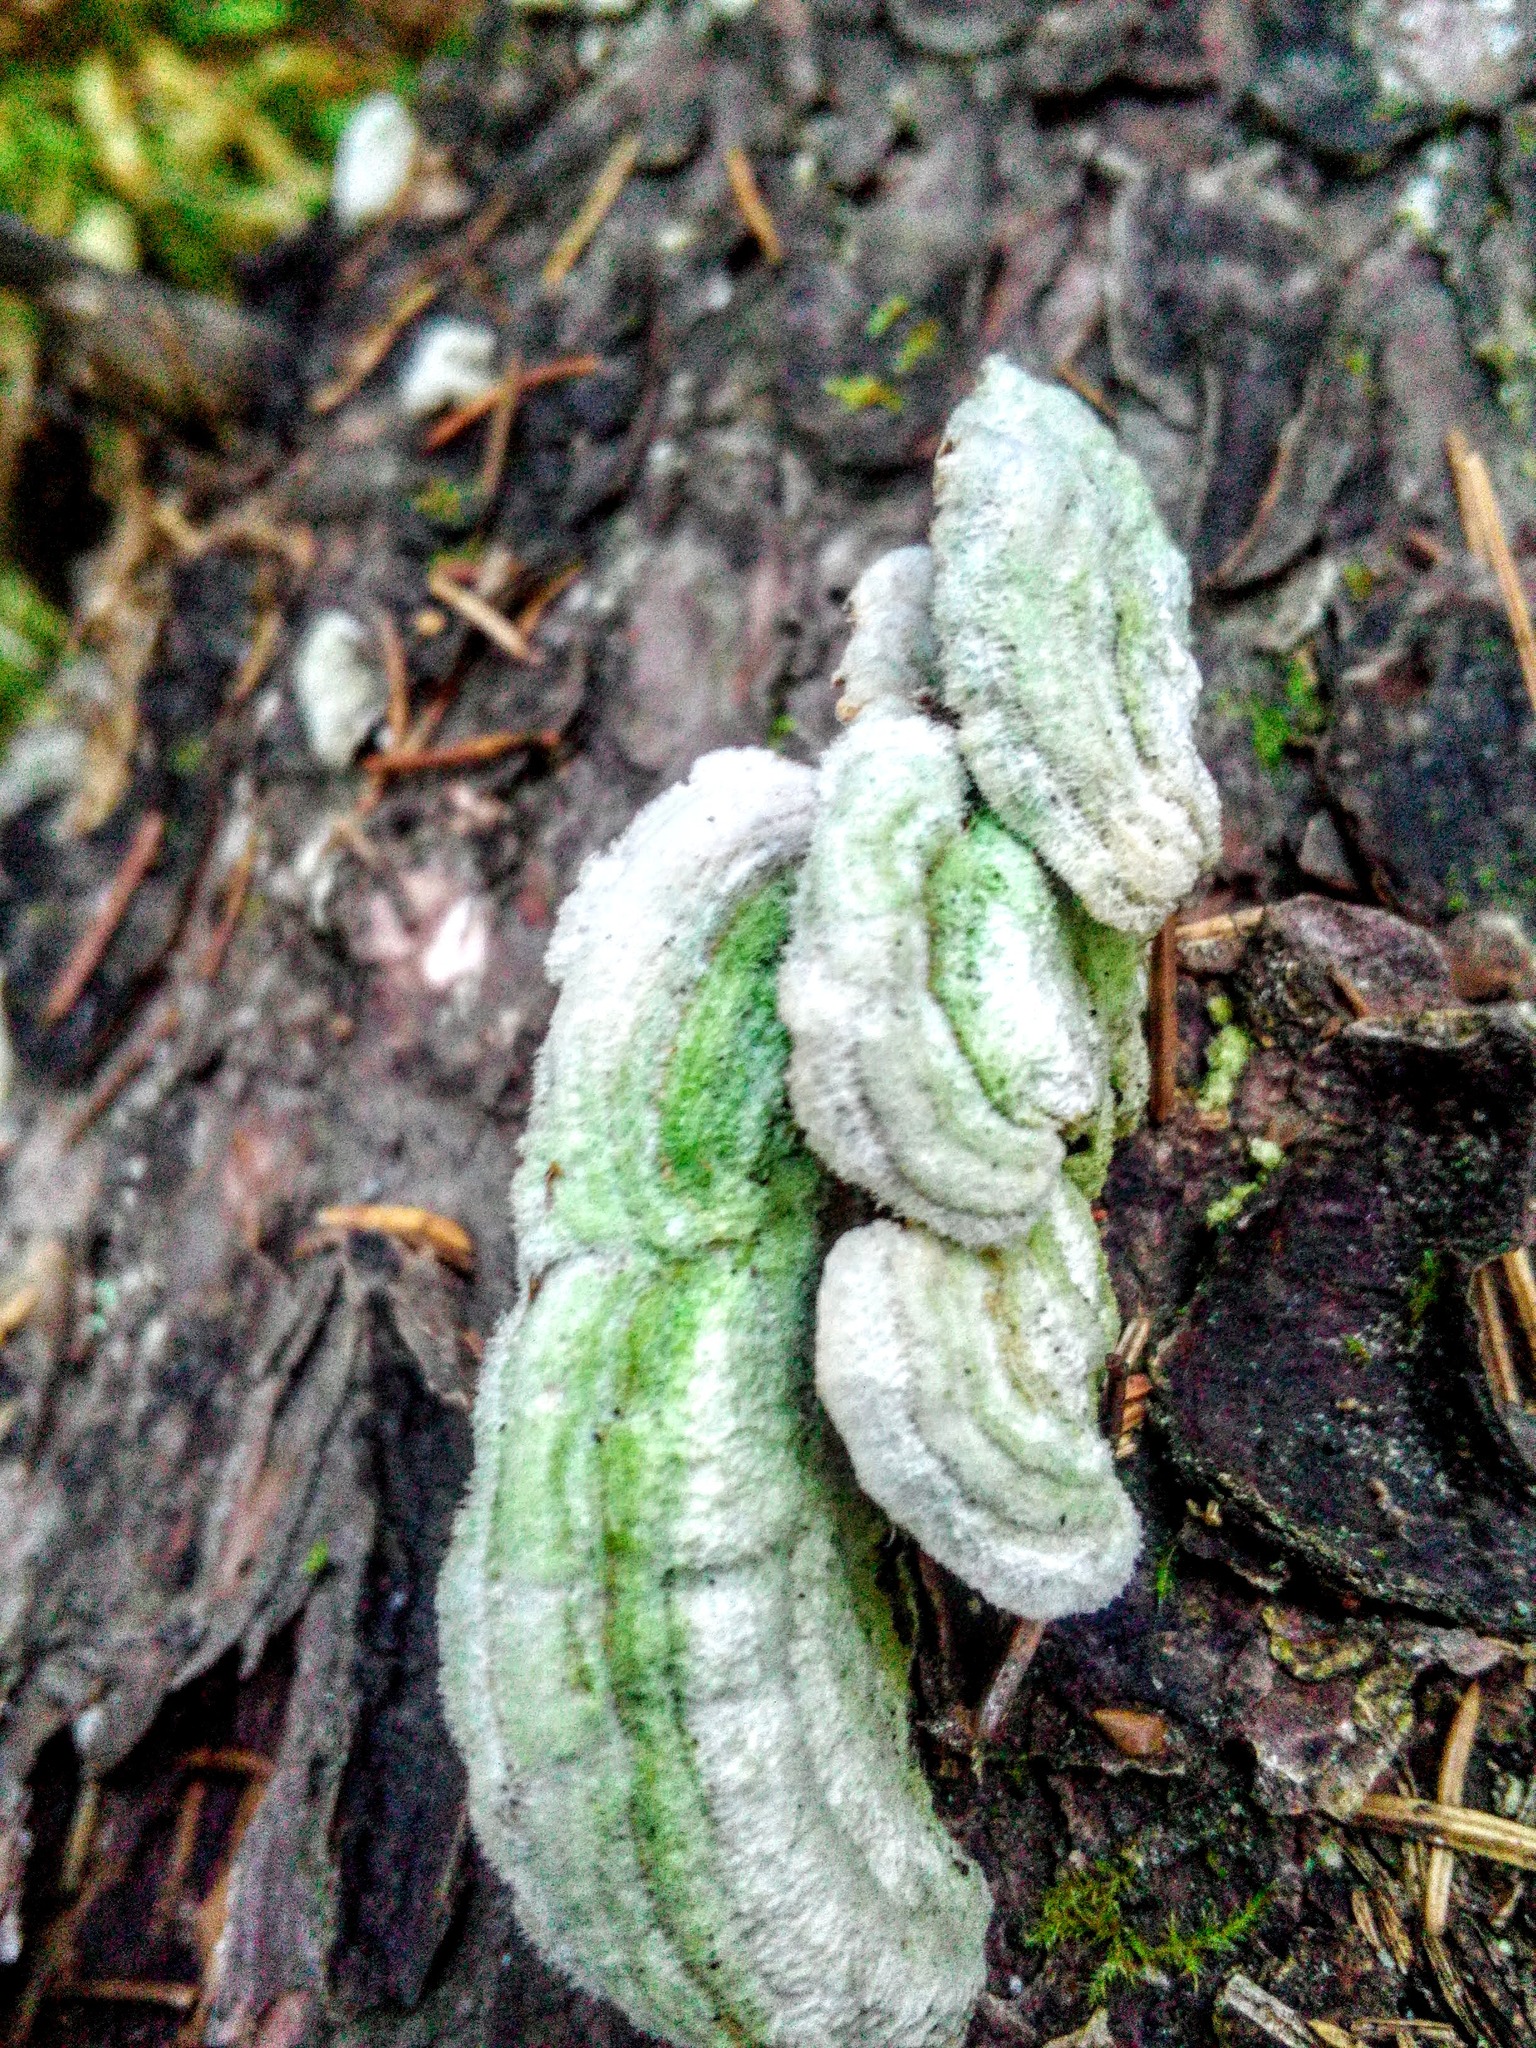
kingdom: Fungi
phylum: Basidiomycota
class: Agaricomycetes
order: Hymenochaetales
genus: Trichaptum
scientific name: Trichaptum fuscoviolaceum
